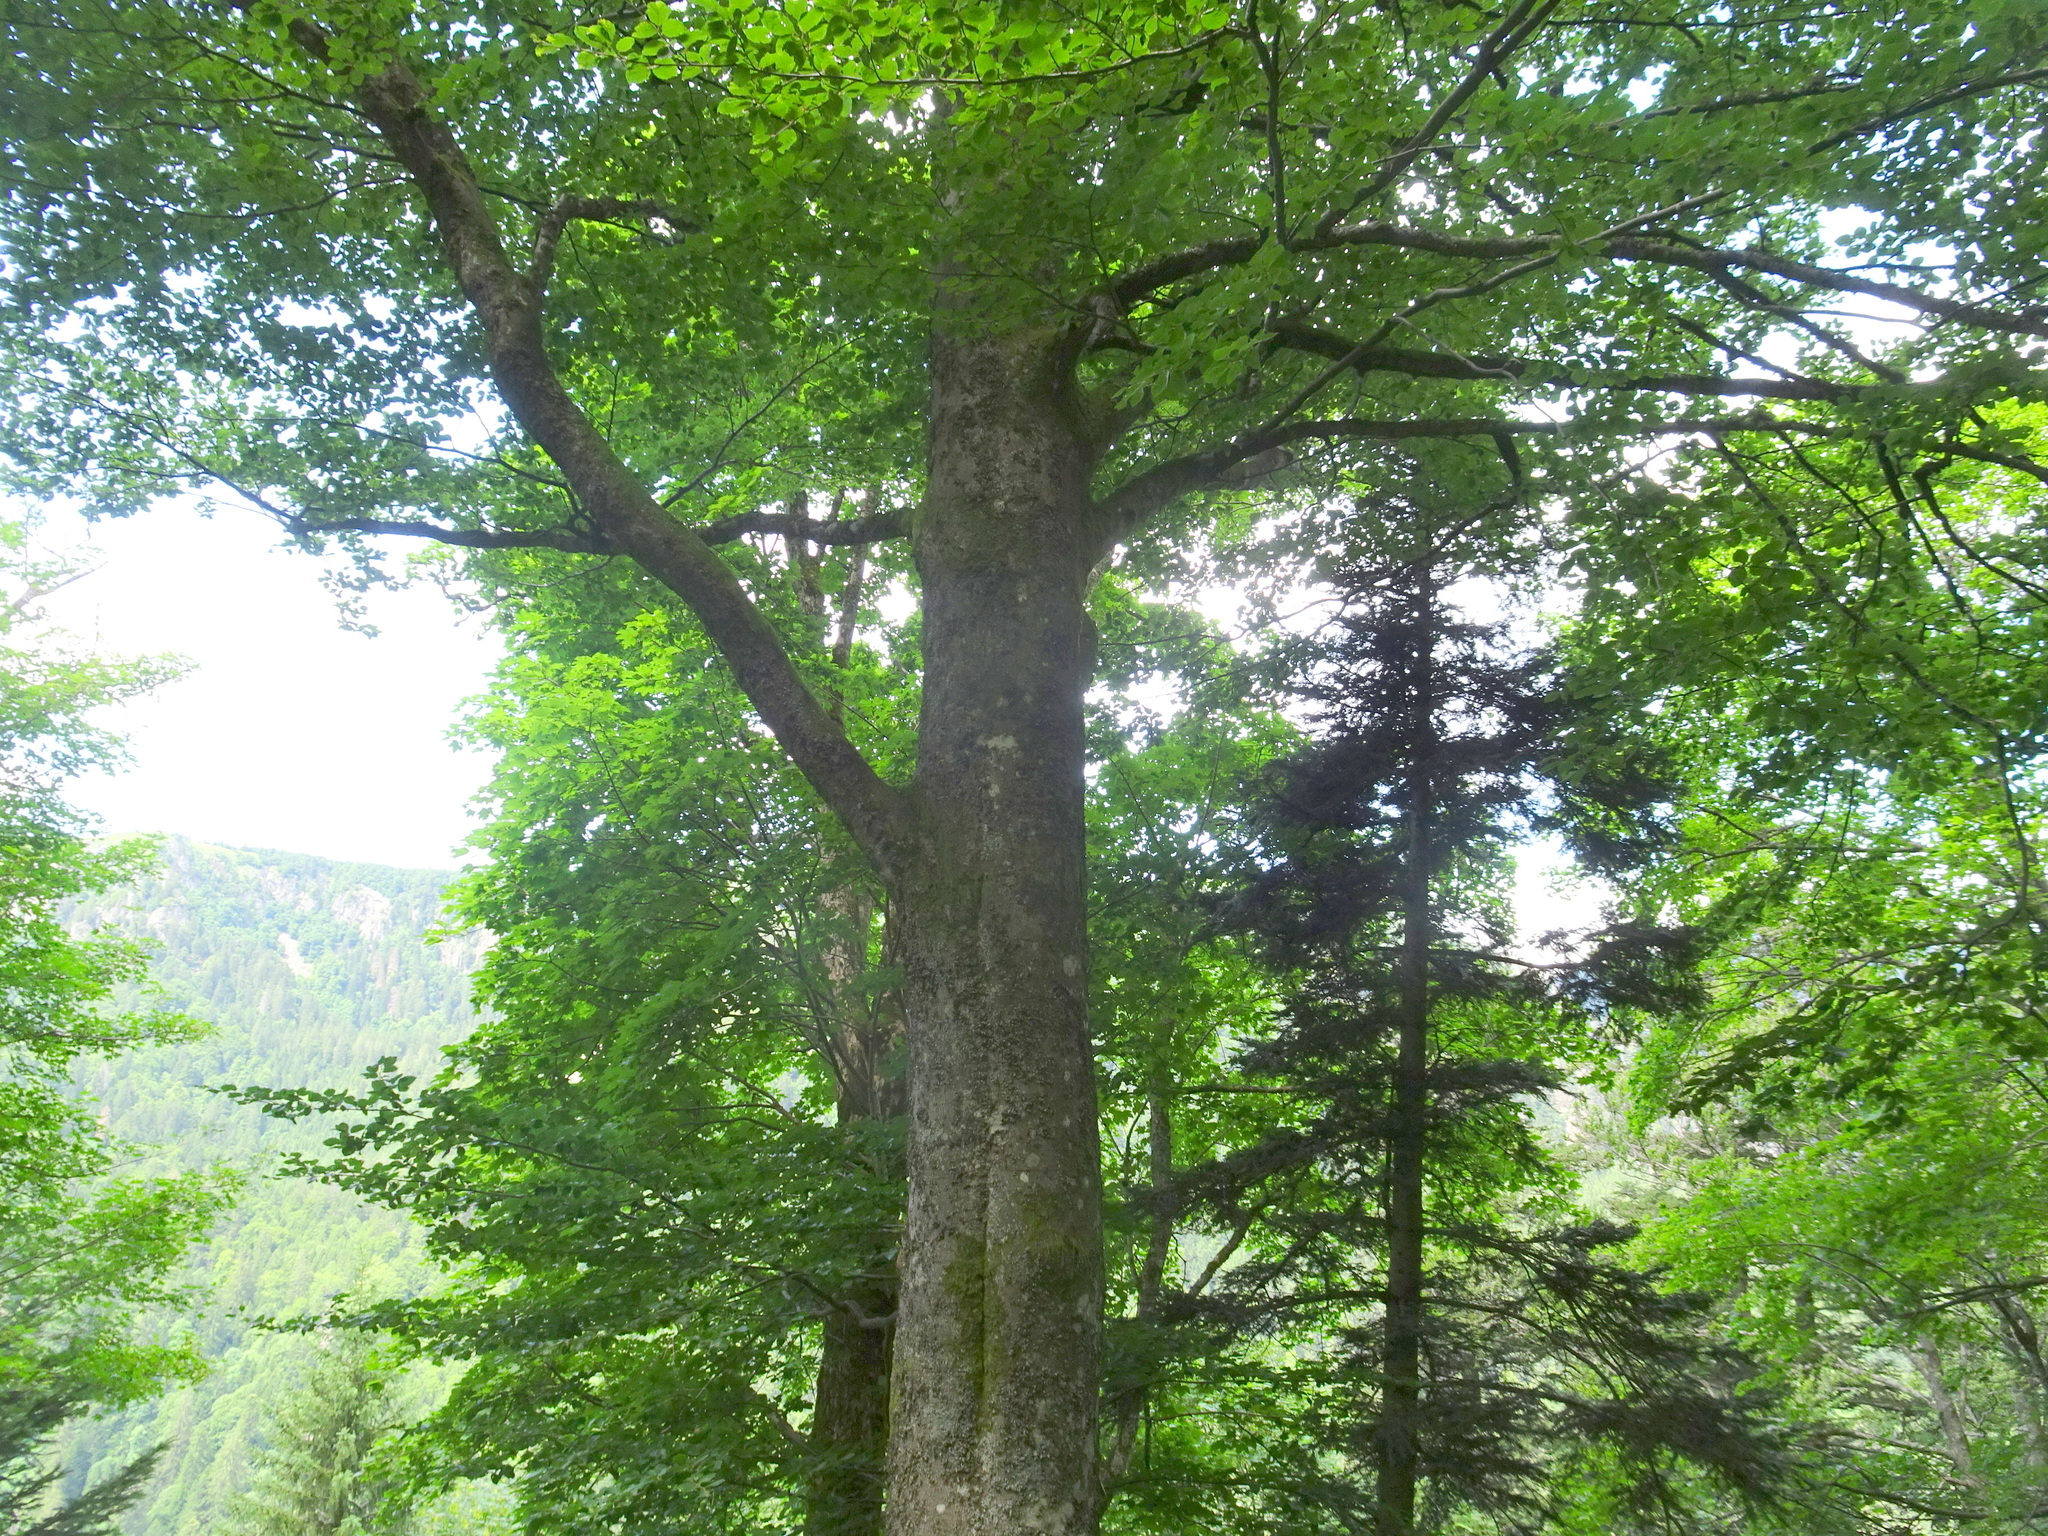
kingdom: Plantae
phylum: Tracheophyta
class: Magnoliopsida
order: Fagales
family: Fagaceae
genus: Fagus
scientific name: Fagus sylvatica
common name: Beech
